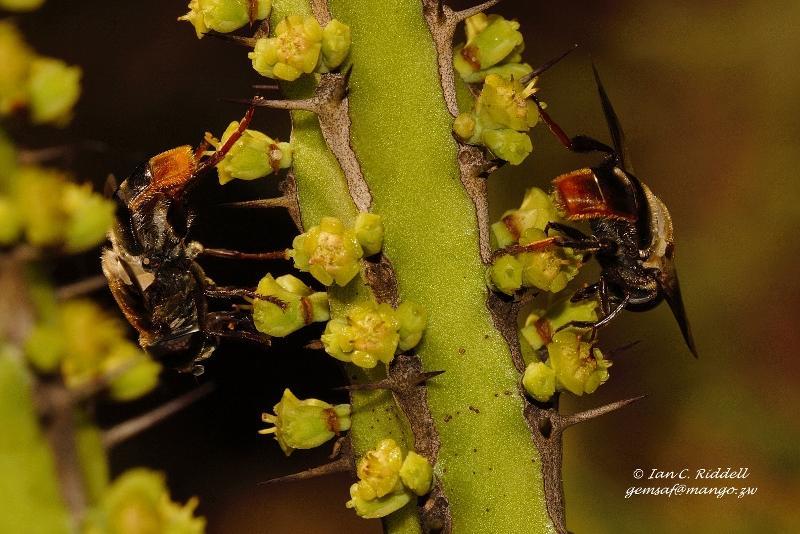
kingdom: Animalia
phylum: Arthropoda
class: Insecta
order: Diptera
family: Syrphidae
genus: Senaspis
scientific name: Senaspis haemorrhoa
